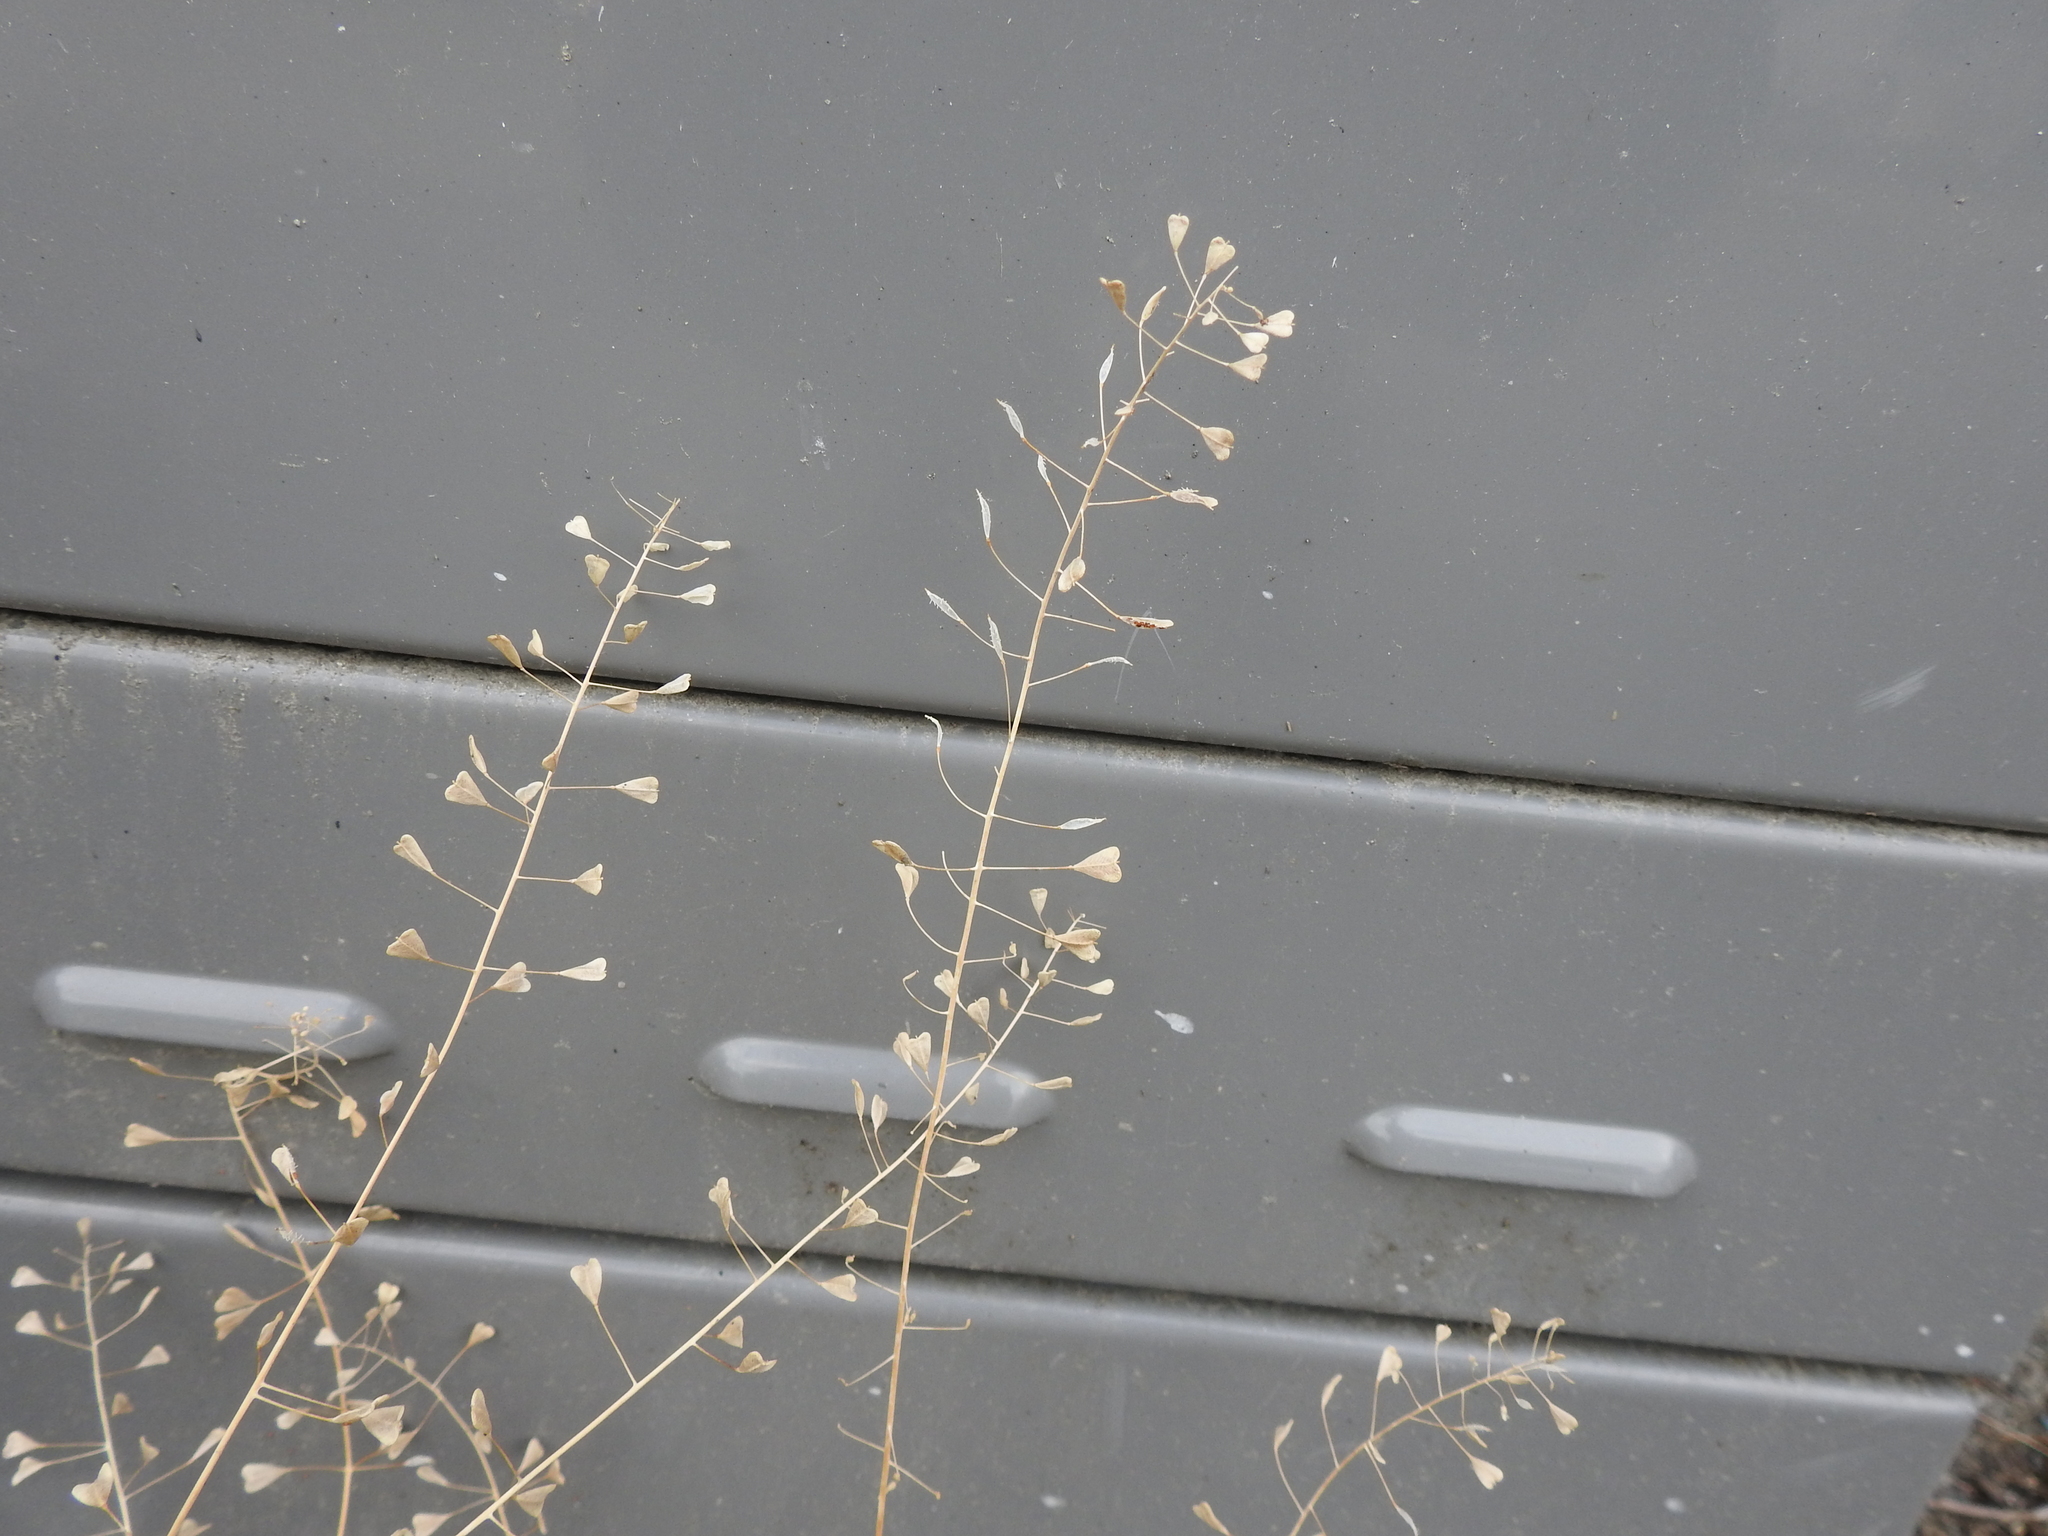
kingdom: Plantae
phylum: Tracheophyta
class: Magnoliopsida
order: Brassicales
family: Brassicaceae
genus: Capsella
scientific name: Capsella bursa-pastoris
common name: Shepherd's purse
